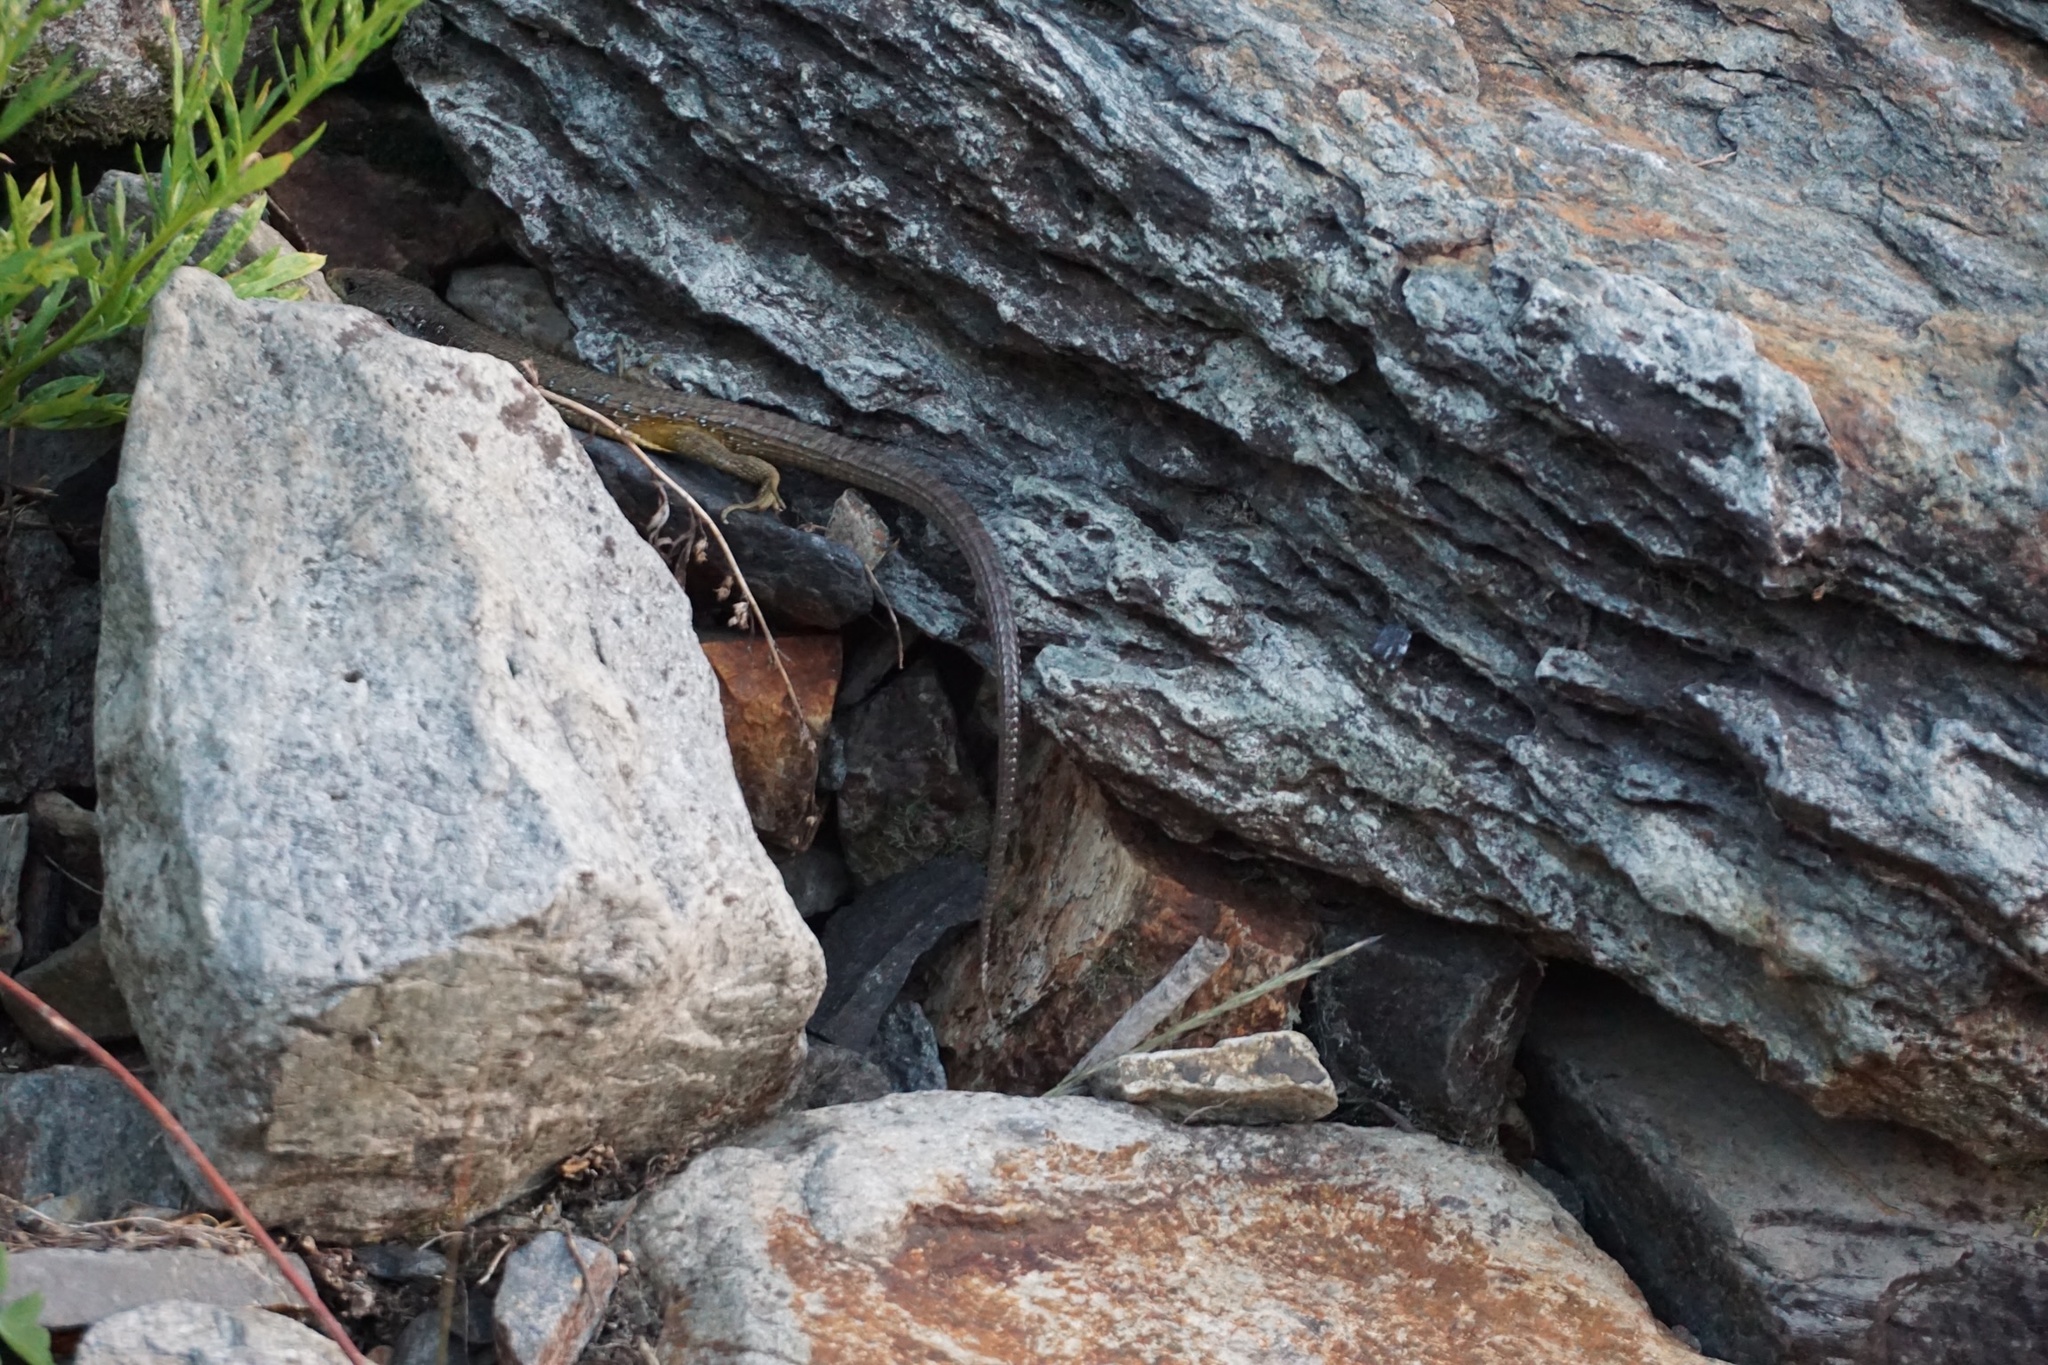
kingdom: Animalia
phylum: Chordata
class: Squamata
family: Anguidae
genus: Elgaria
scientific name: Elgaria coerulea
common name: Northern alligator lizard
